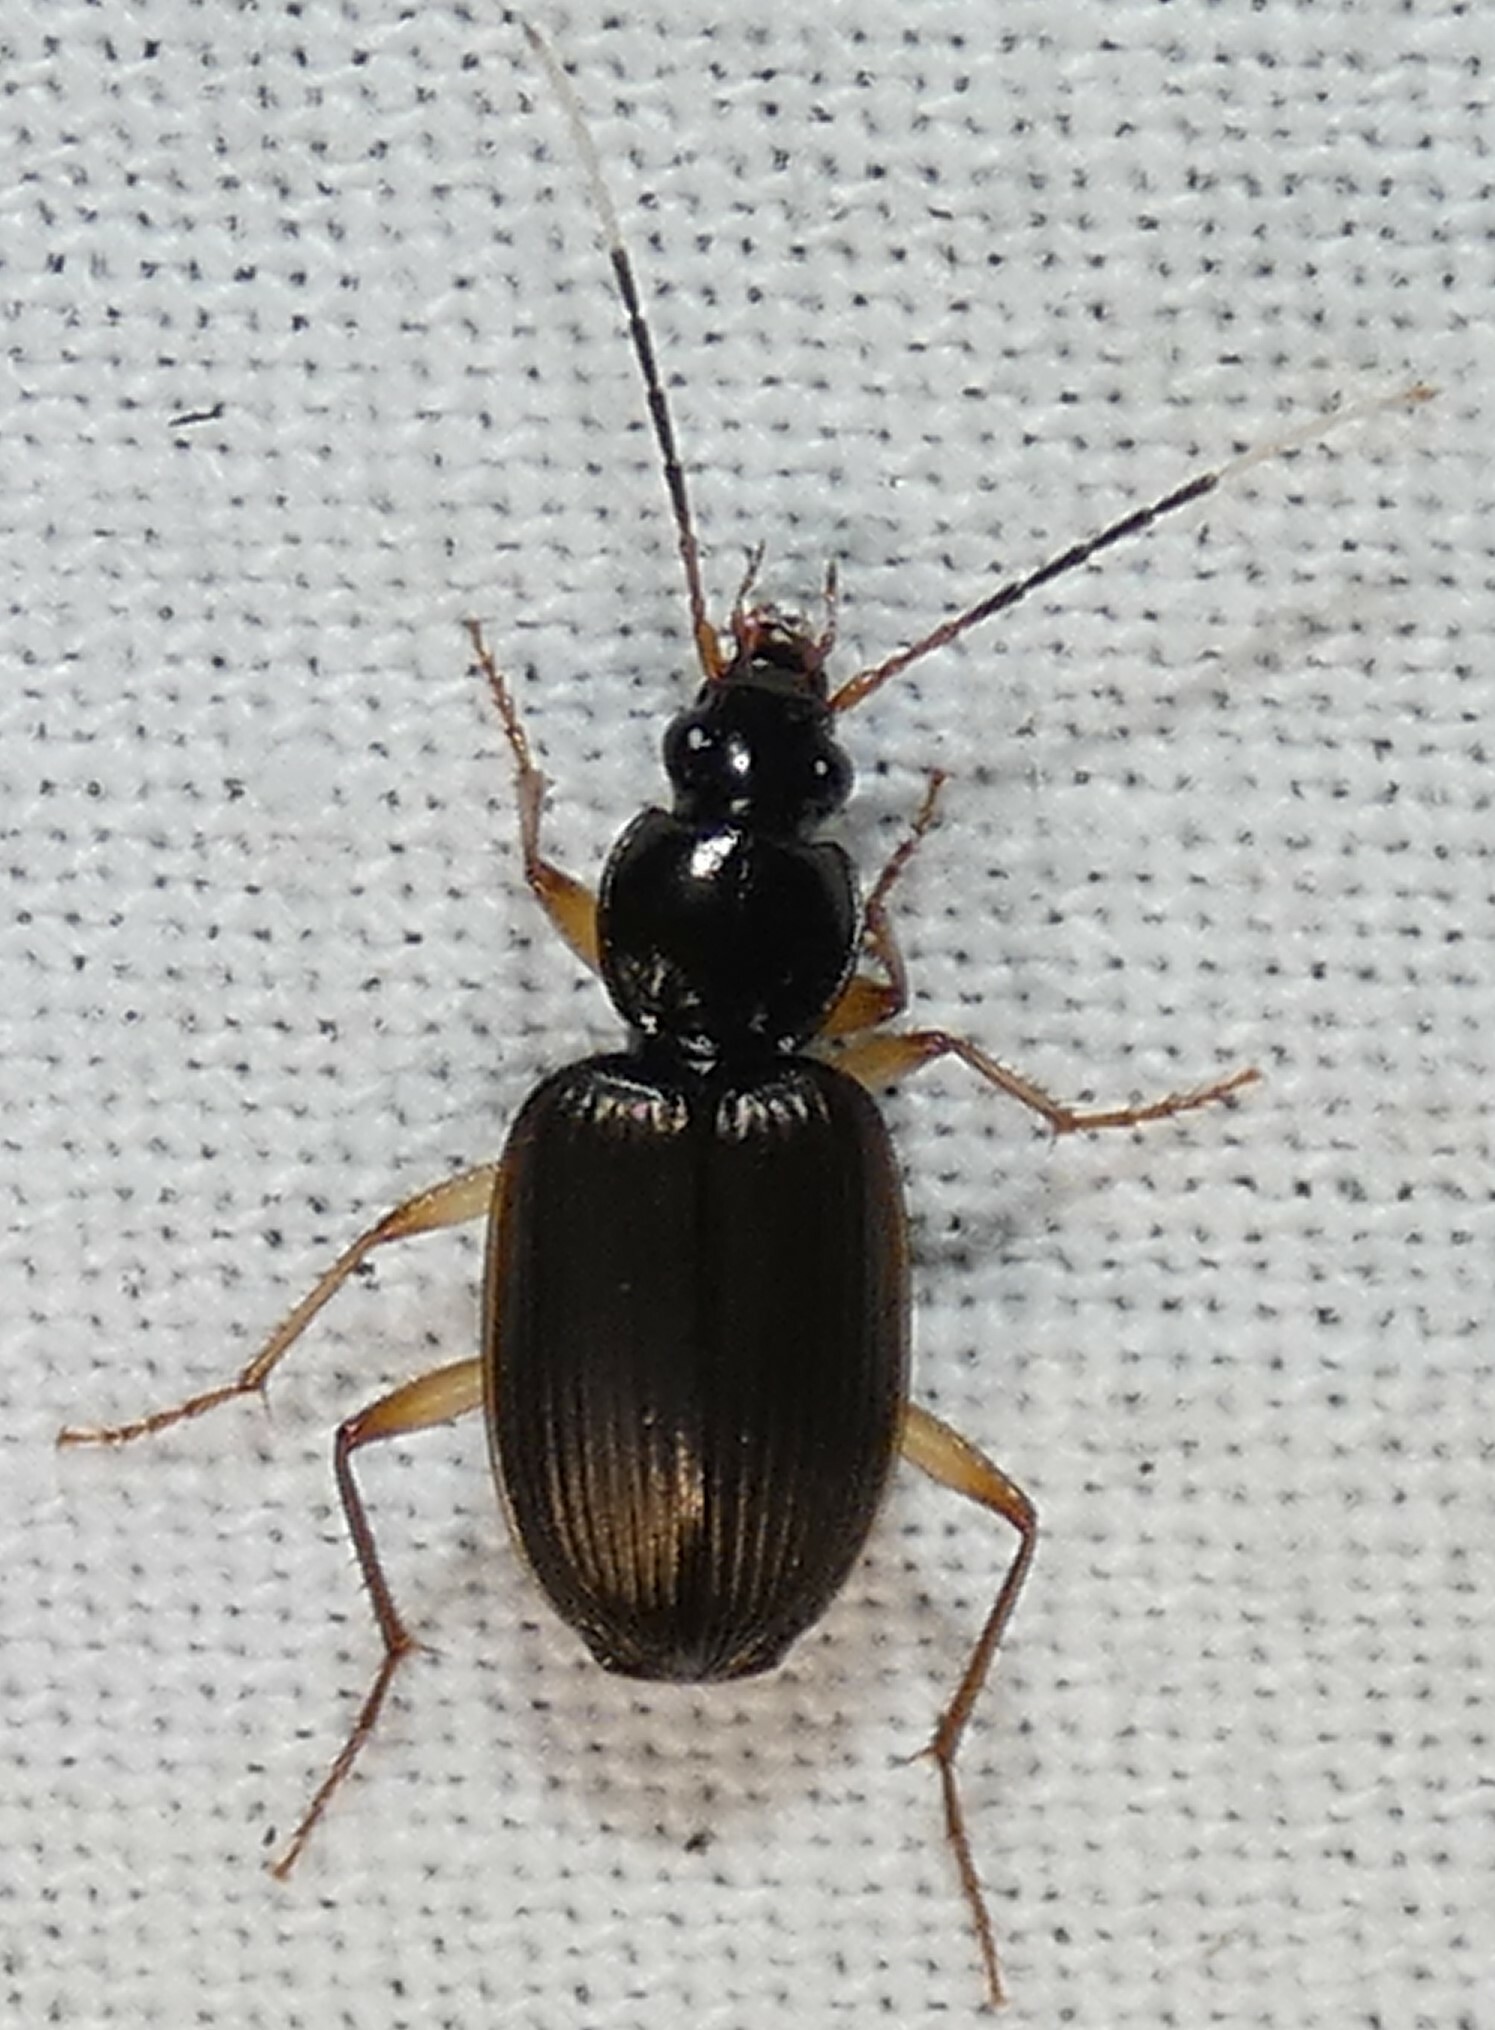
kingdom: Animalia
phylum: Arthropoda
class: Insecta
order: Coleoptera
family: Carabidae
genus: Tetraleucus
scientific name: Tetraleucus picticornis
